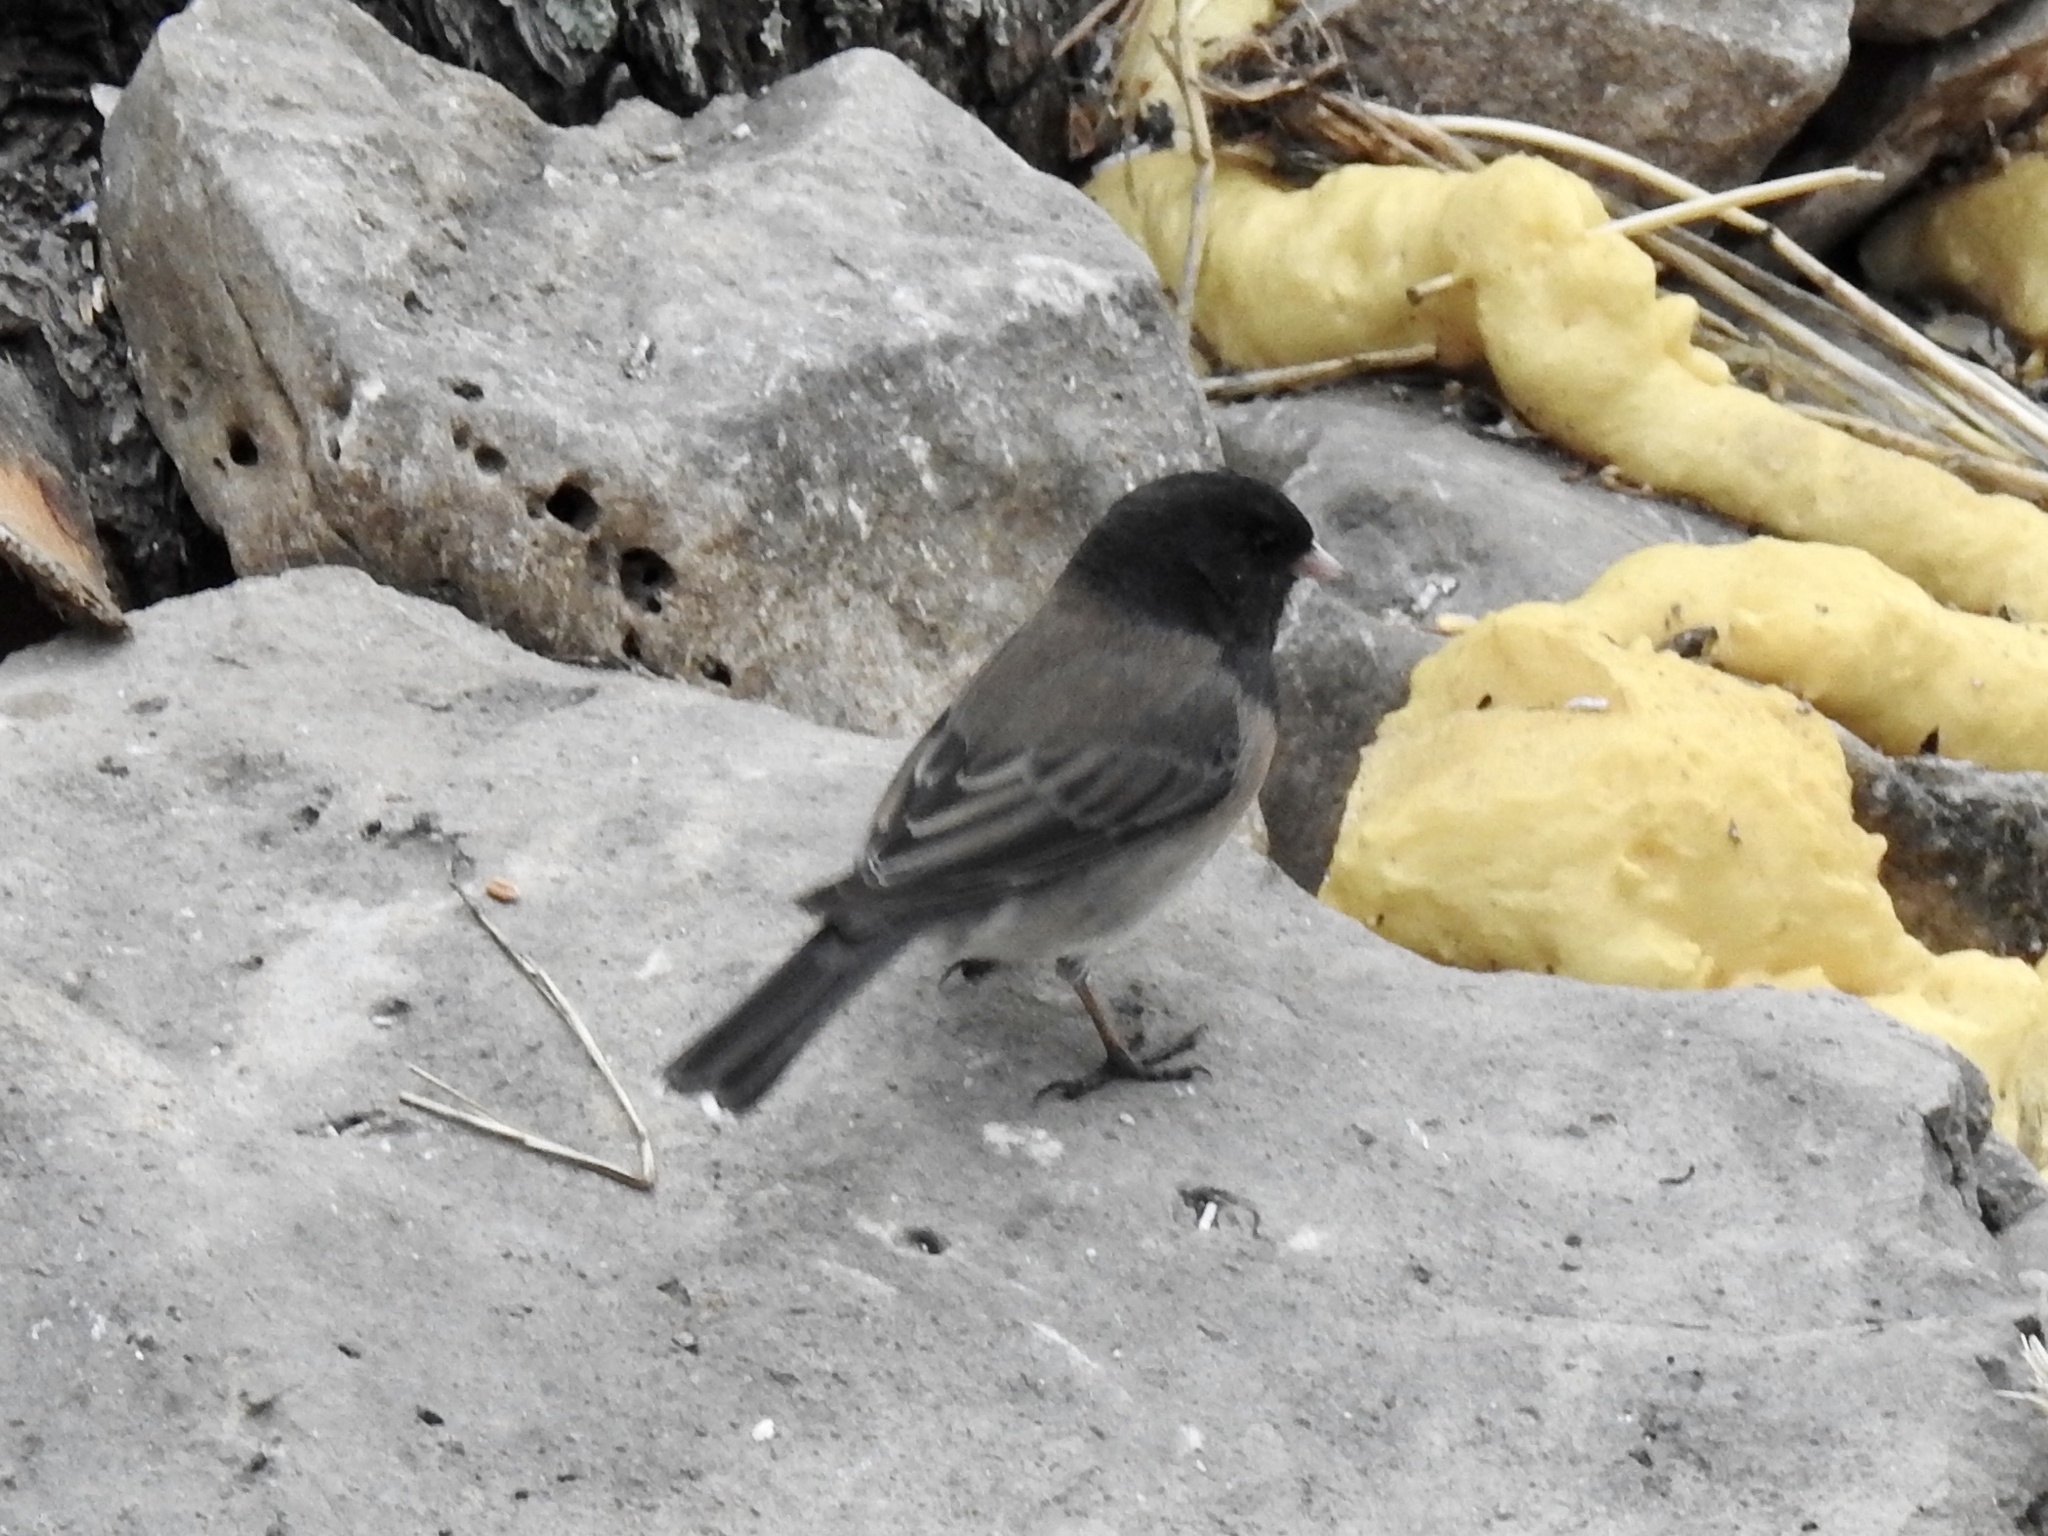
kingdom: Animalia
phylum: Chordata
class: Aves
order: Passeriformes
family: Passerellidae
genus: Junco
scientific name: Junco hyemalis
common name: Dark-eyed junco
